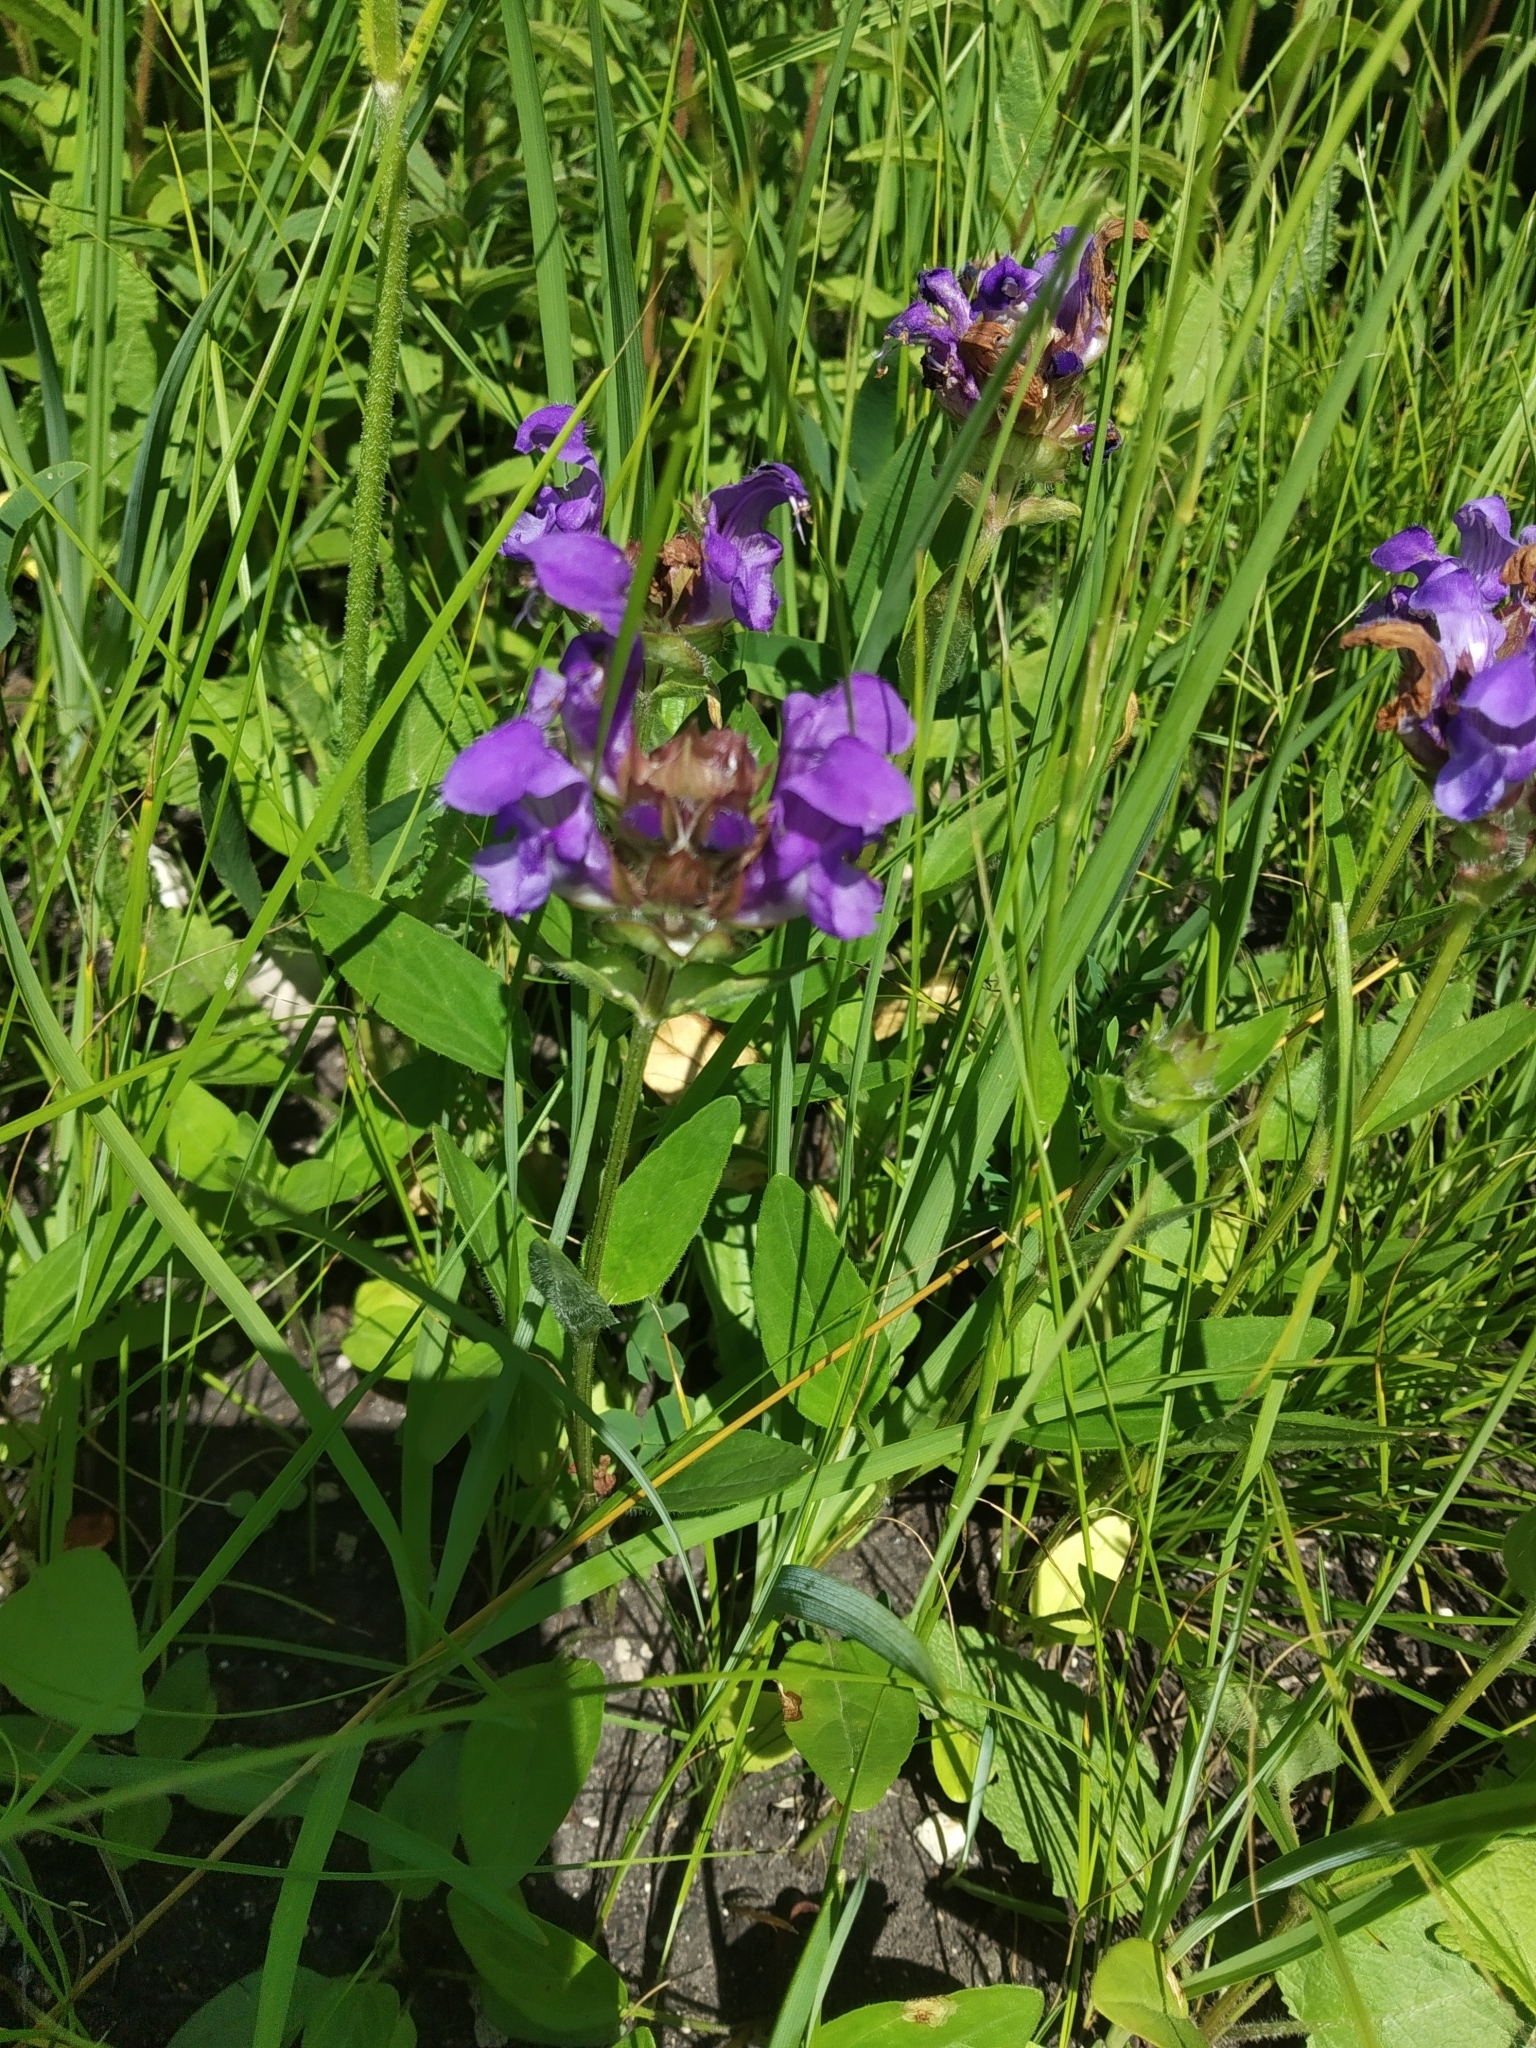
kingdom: Plantae
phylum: Tracheophyta
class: Magnoliopsida
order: Lamiales
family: Lamiaceae
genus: Prunella
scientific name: Prunella grandiflora
